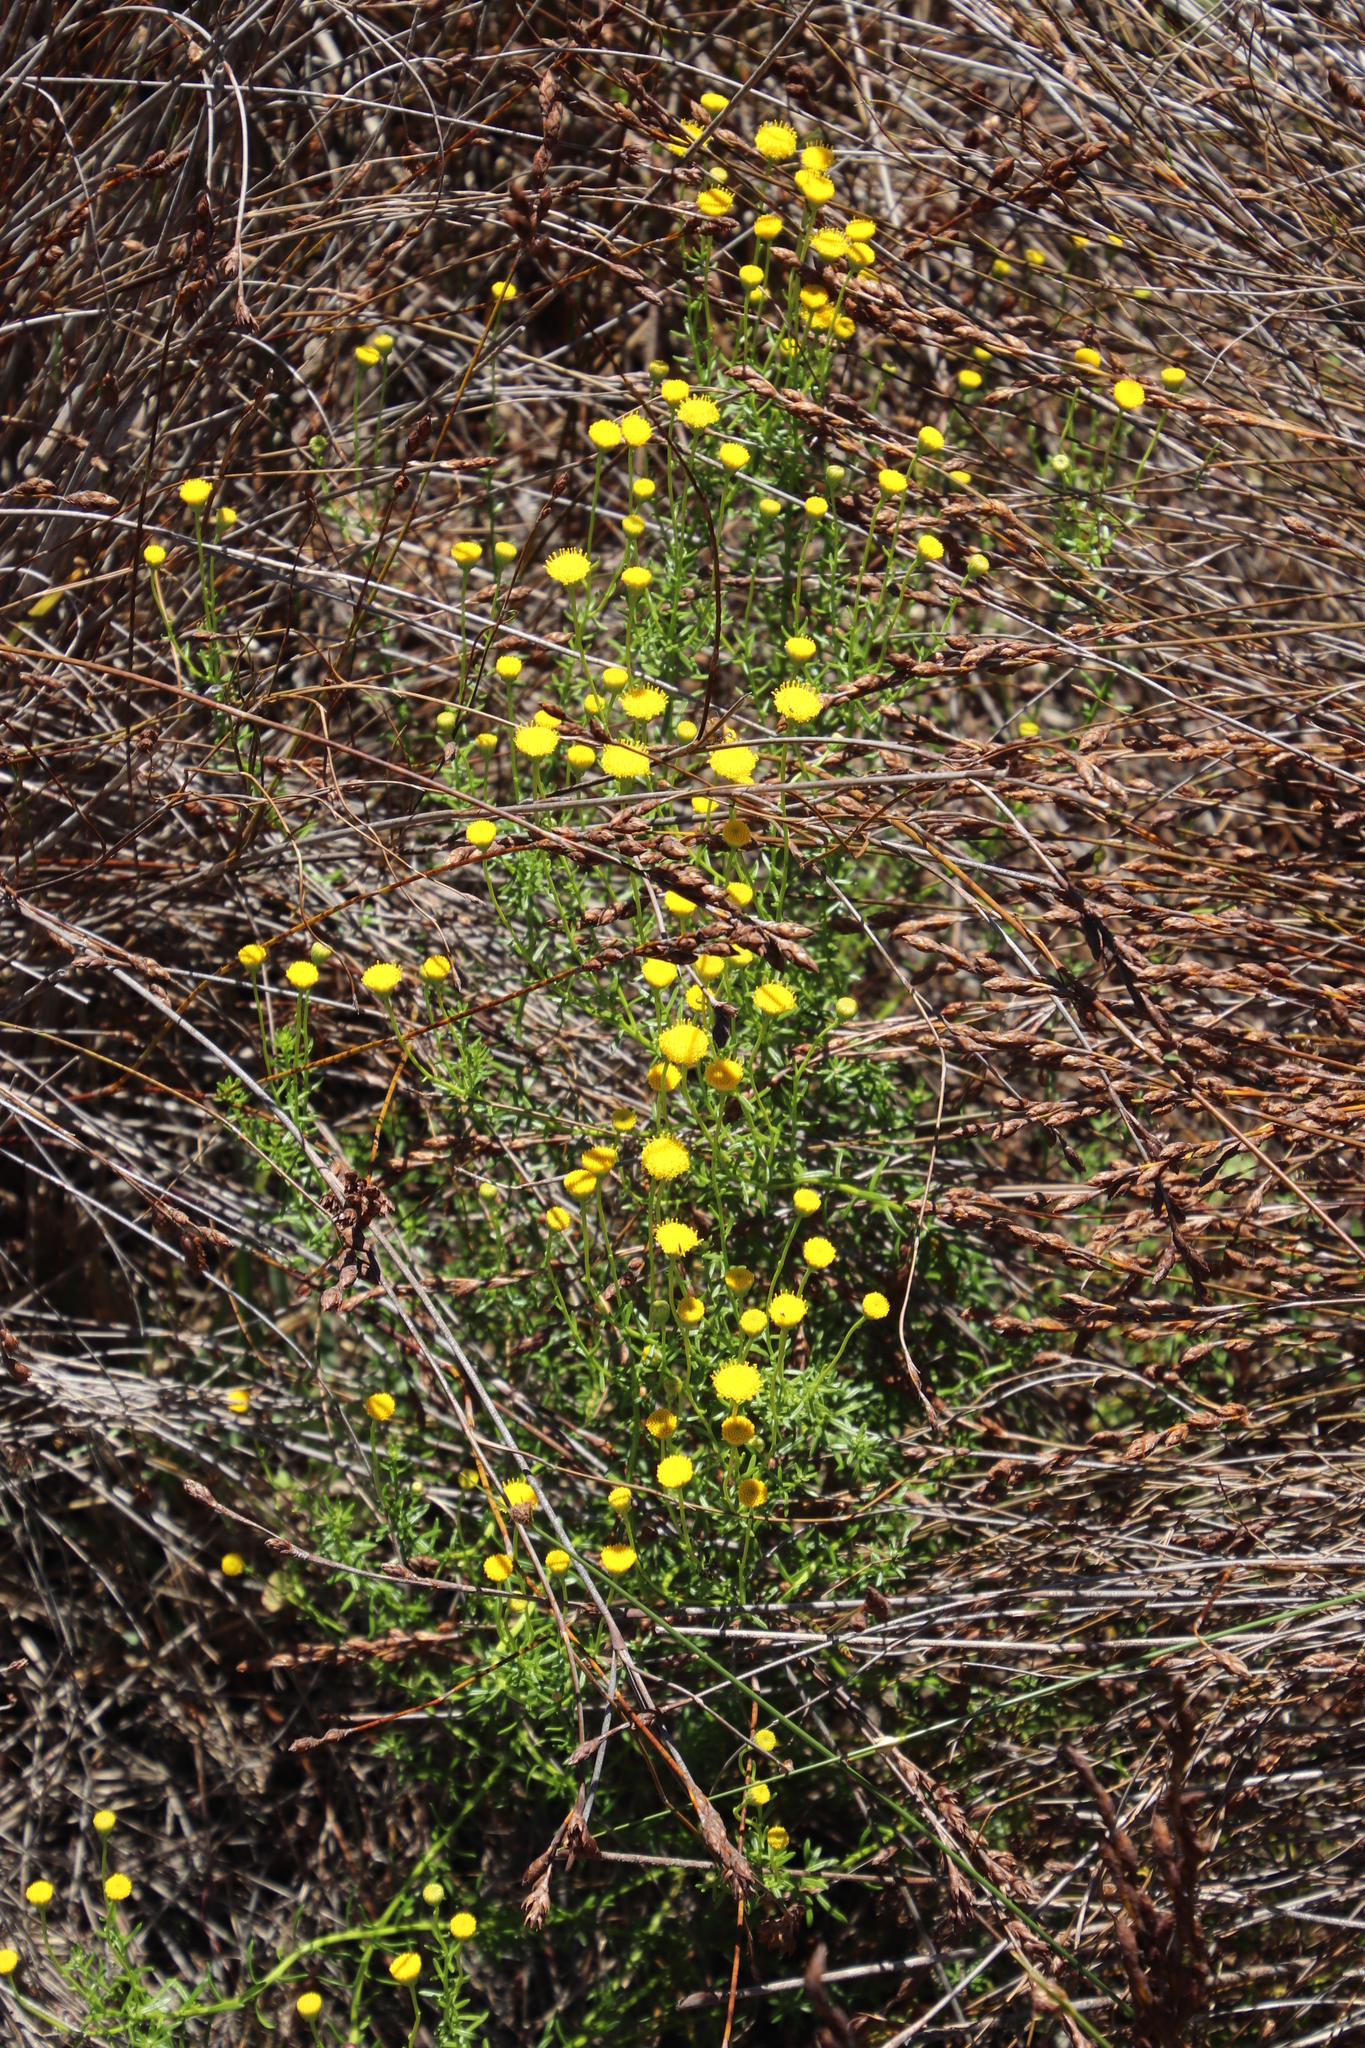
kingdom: Plantae
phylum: Tracheophyta
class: Magnoliopsida
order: Asterales
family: Asteraceae
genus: Chrysocoma
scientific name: Chrysocoma cernua
